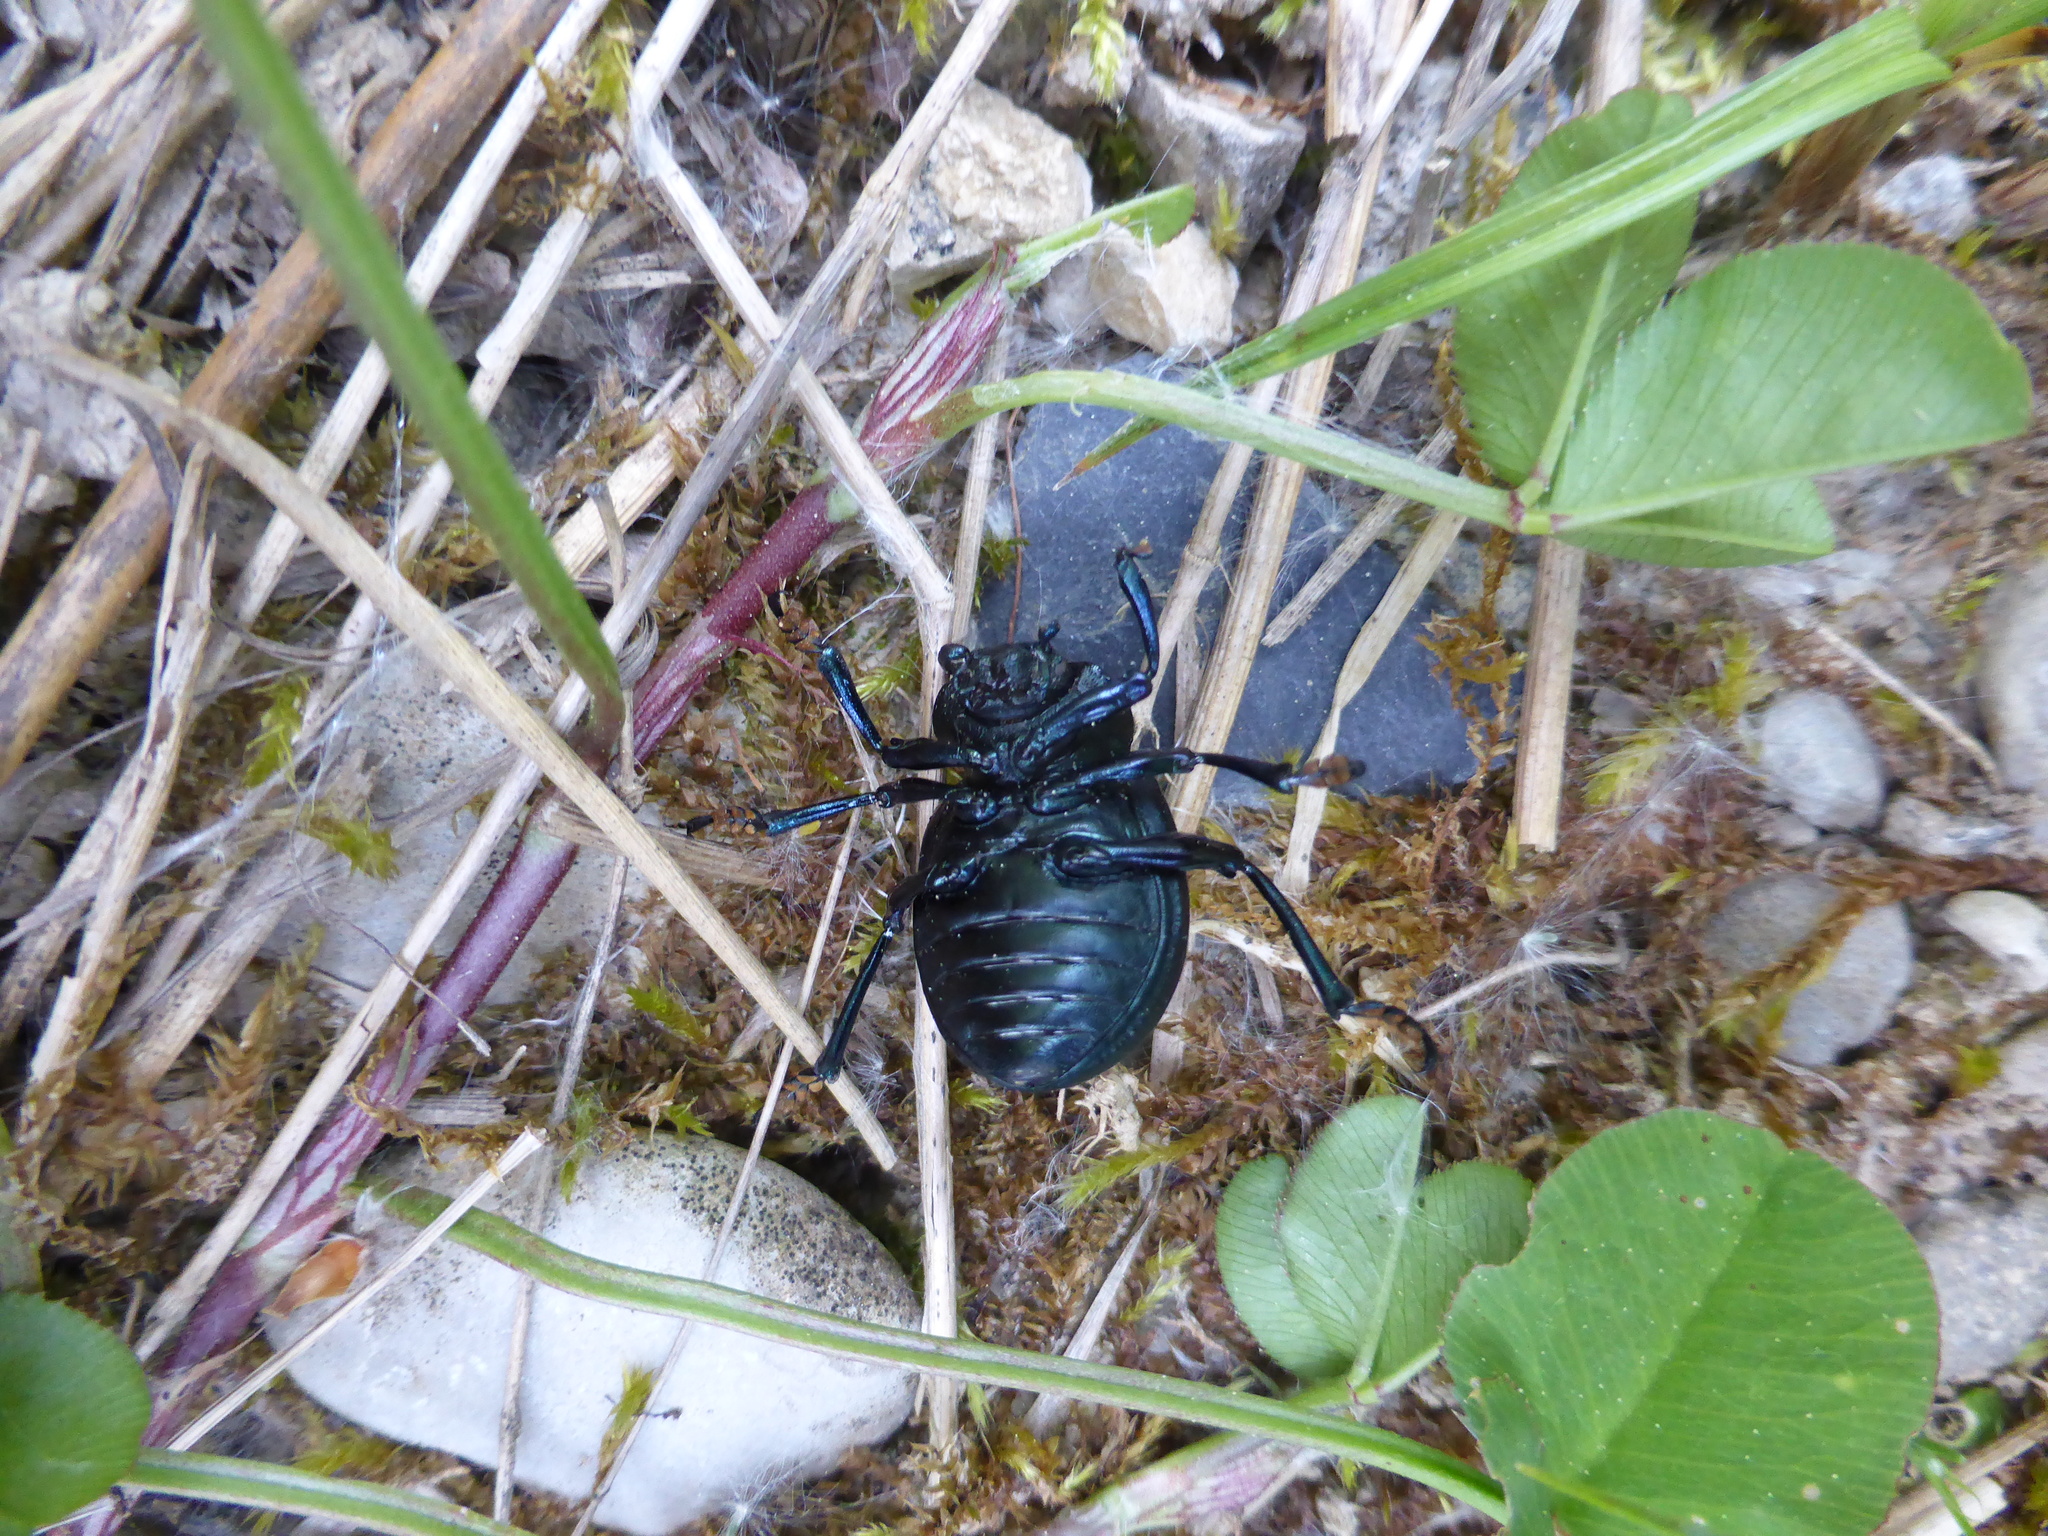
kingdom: Animalia
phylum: Arthropoda
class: Insecta
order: Coleoptera
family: Chrysomelidae
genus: Timarcha
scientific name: Timarcha tenebricosa
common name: Bloody-nosed beetle
